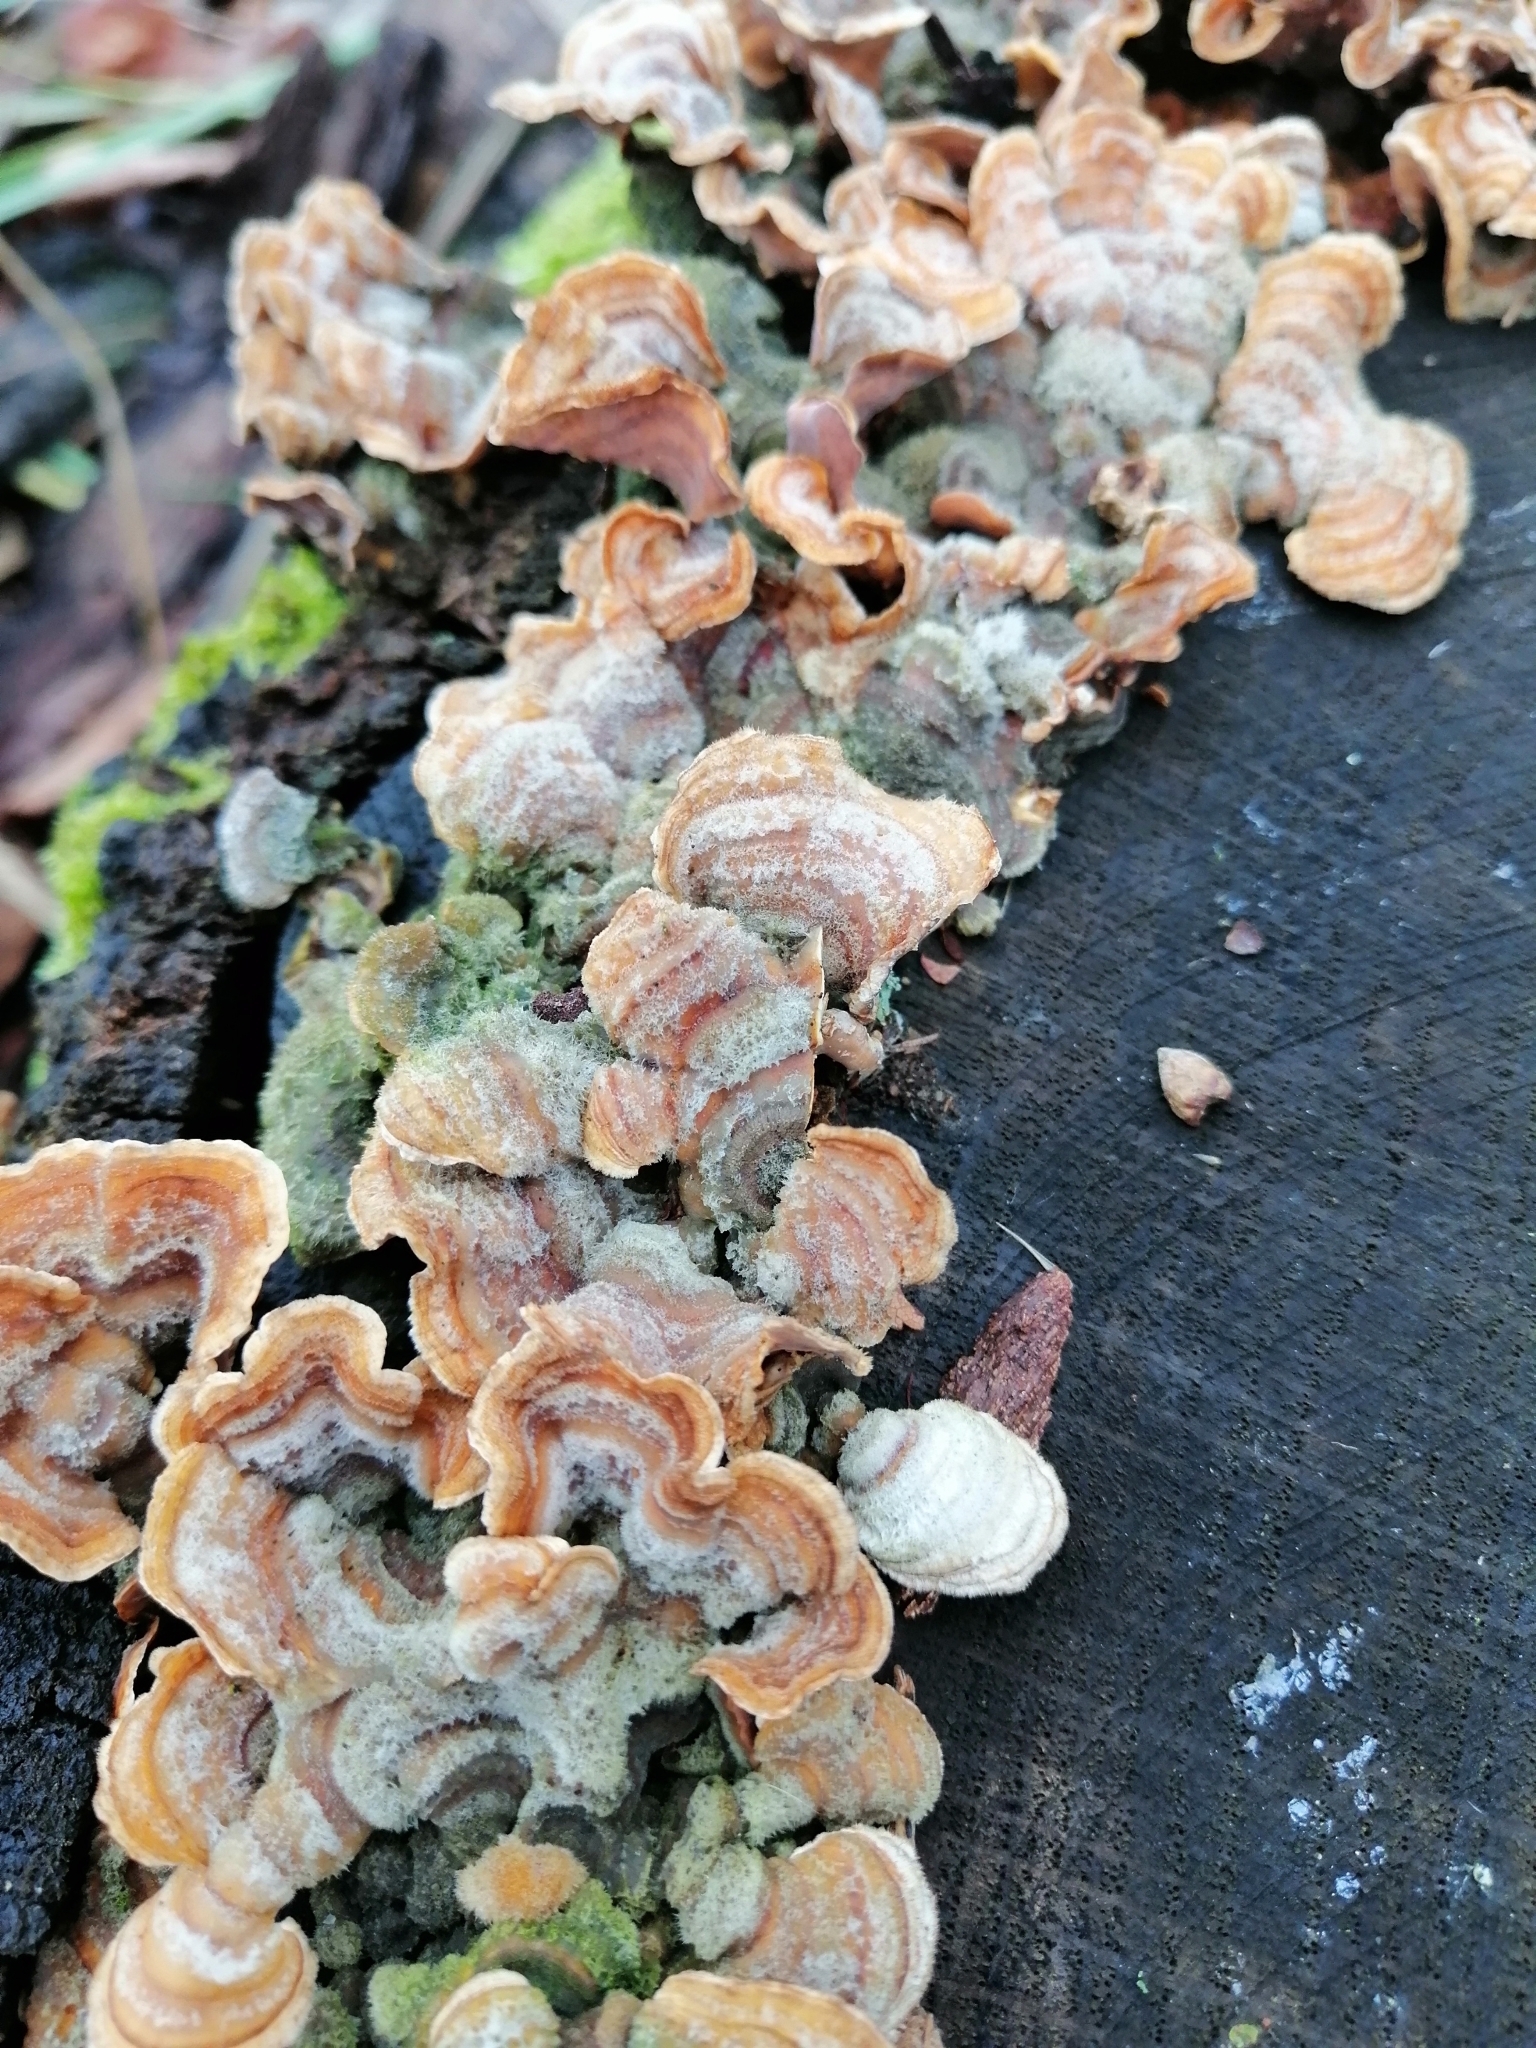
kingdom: Fungi
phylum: Basidiomycota
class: Agaricomycetes
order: Russulales
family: Stereaceae
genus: Stereum
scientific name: Stereum hirsutum
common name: Hairy curtain crust
